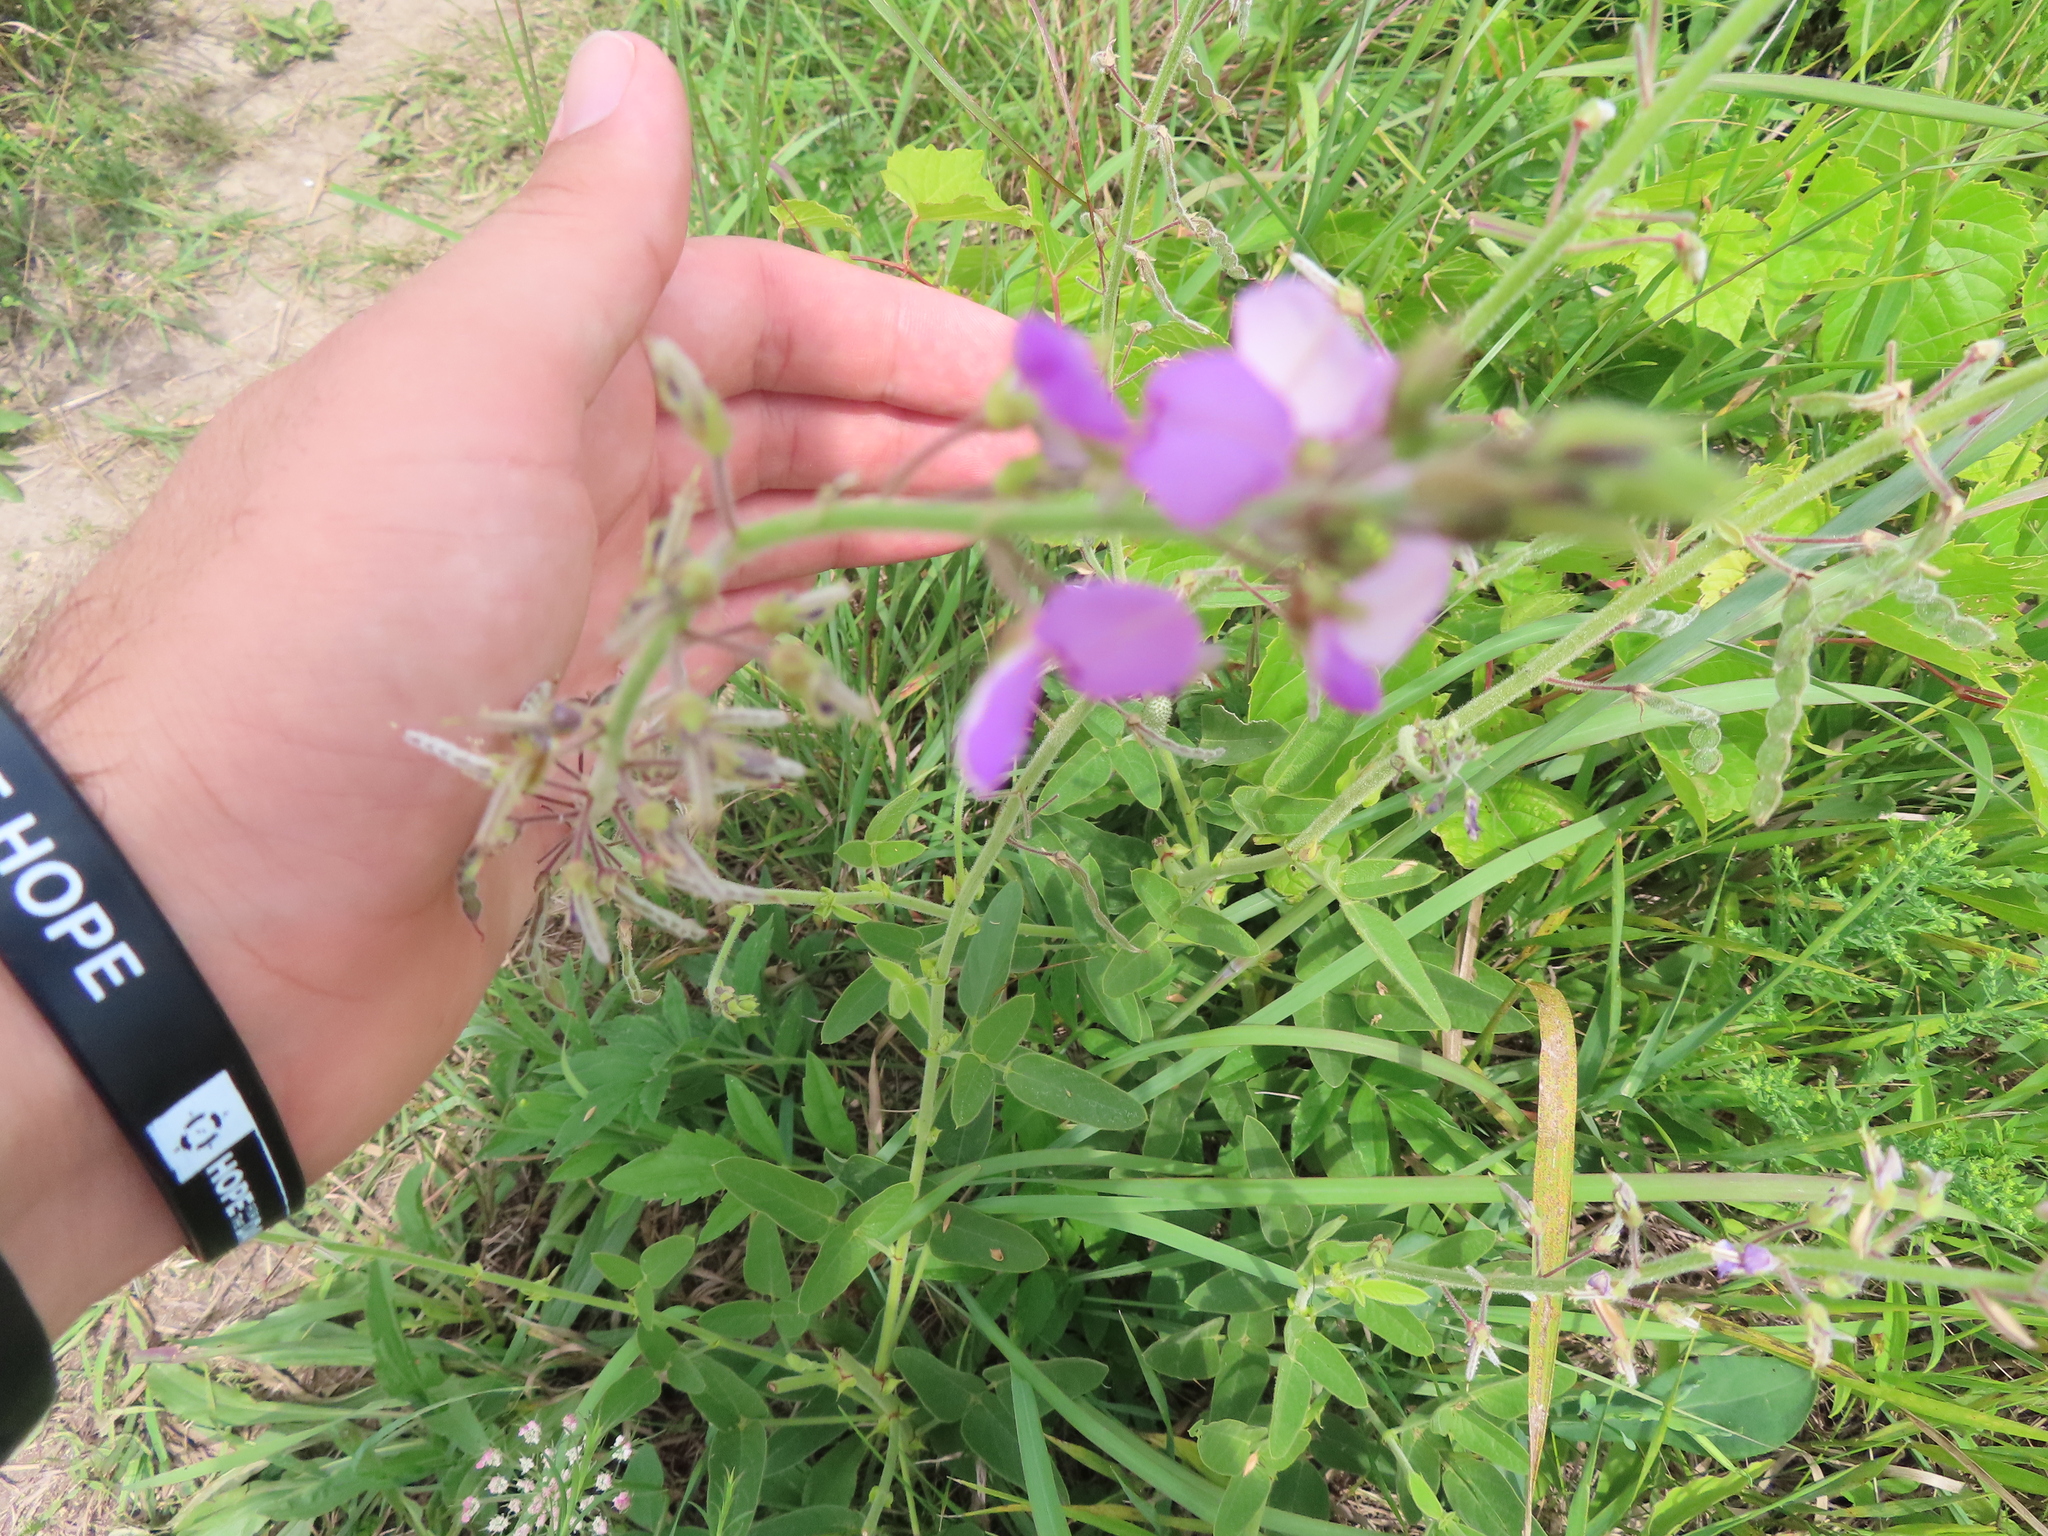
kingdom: Plantae
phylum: Tracheophyta
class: Magnoliopsida
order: Fabales
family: Fabaceae
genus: Desmodium
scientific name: Desmodium illinoense
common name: Illinois tick-clover
